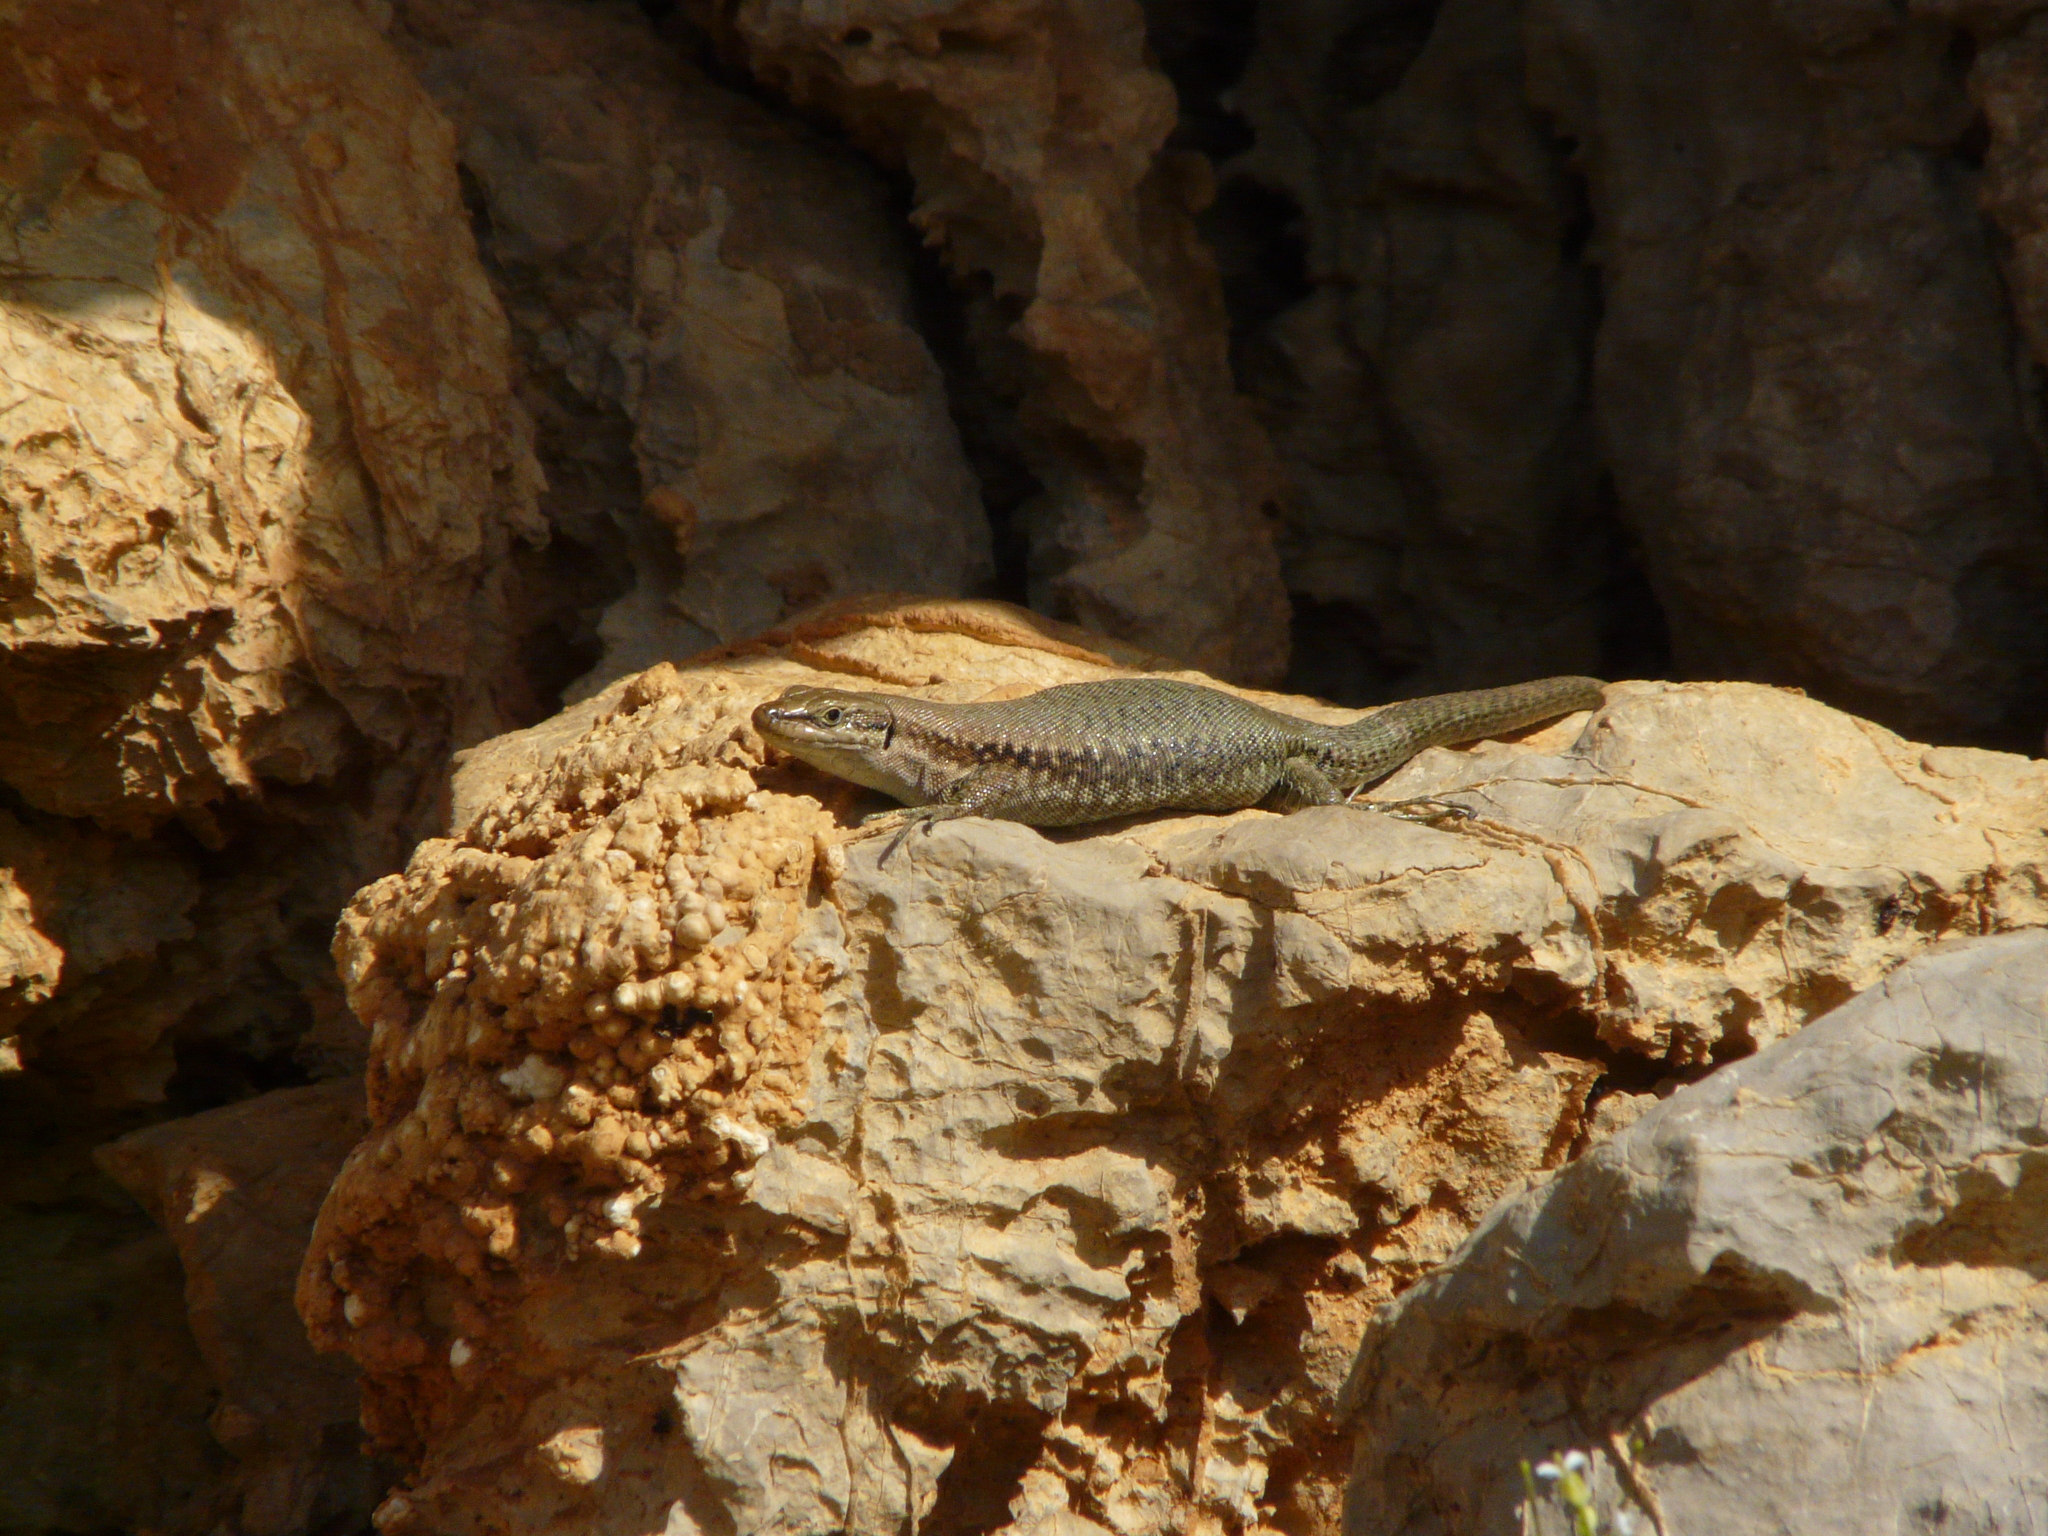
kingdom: Animalia
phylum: Chordata
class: Squamata
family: Lacertidae
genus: Phoenicolacerta
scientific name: Phoenicolacerta kulzeri
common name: Kulzer’s rock lizard
